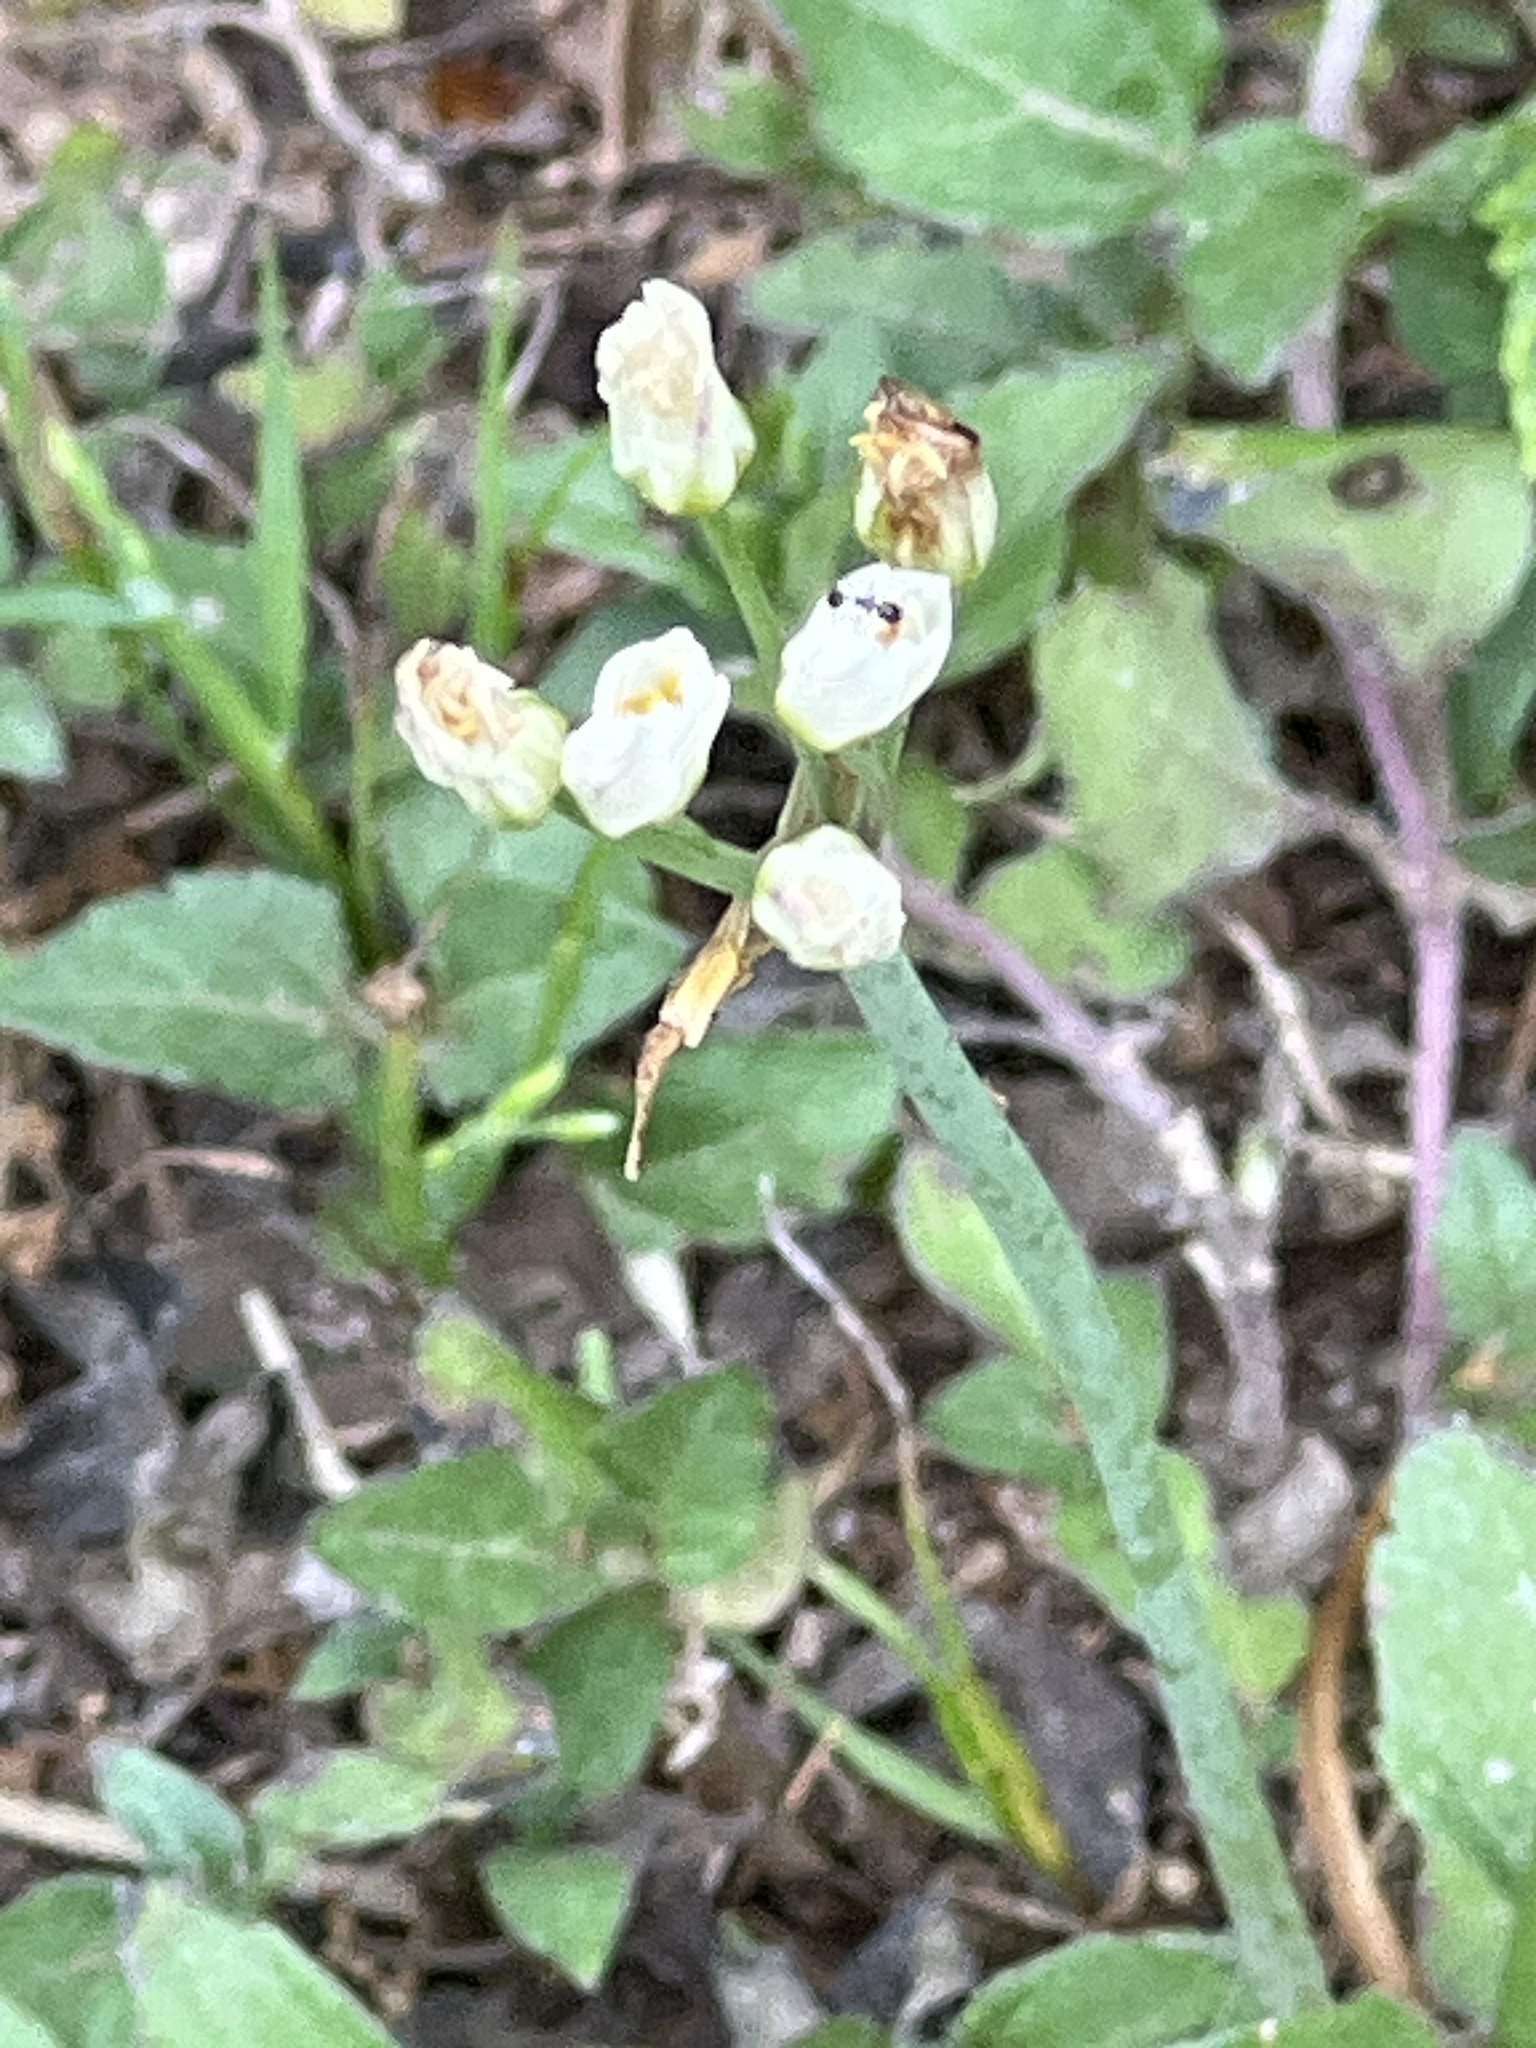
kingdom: Plantae
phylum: Tracheophyta
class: Liliopsida
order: Asparagales
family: Amaryllidaceae
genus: Nothoscordum
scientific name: Nothoscordum bivalve
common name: Crow-poison
